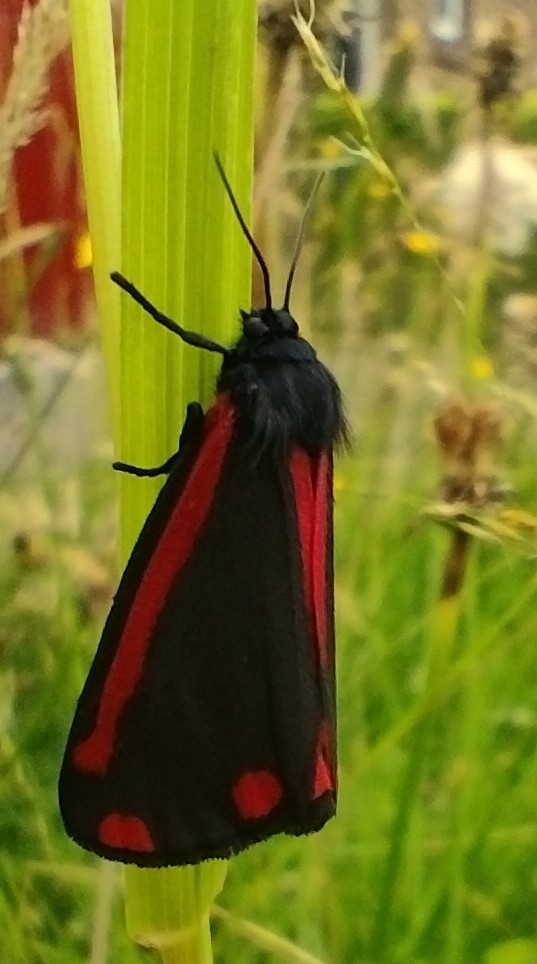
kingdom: Animalia
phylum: Arthropoda
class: Insecta
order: Lepidoptera
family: Erebidae
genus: Tyria
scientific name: Tyria jacobaeae
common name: Cinnabar
